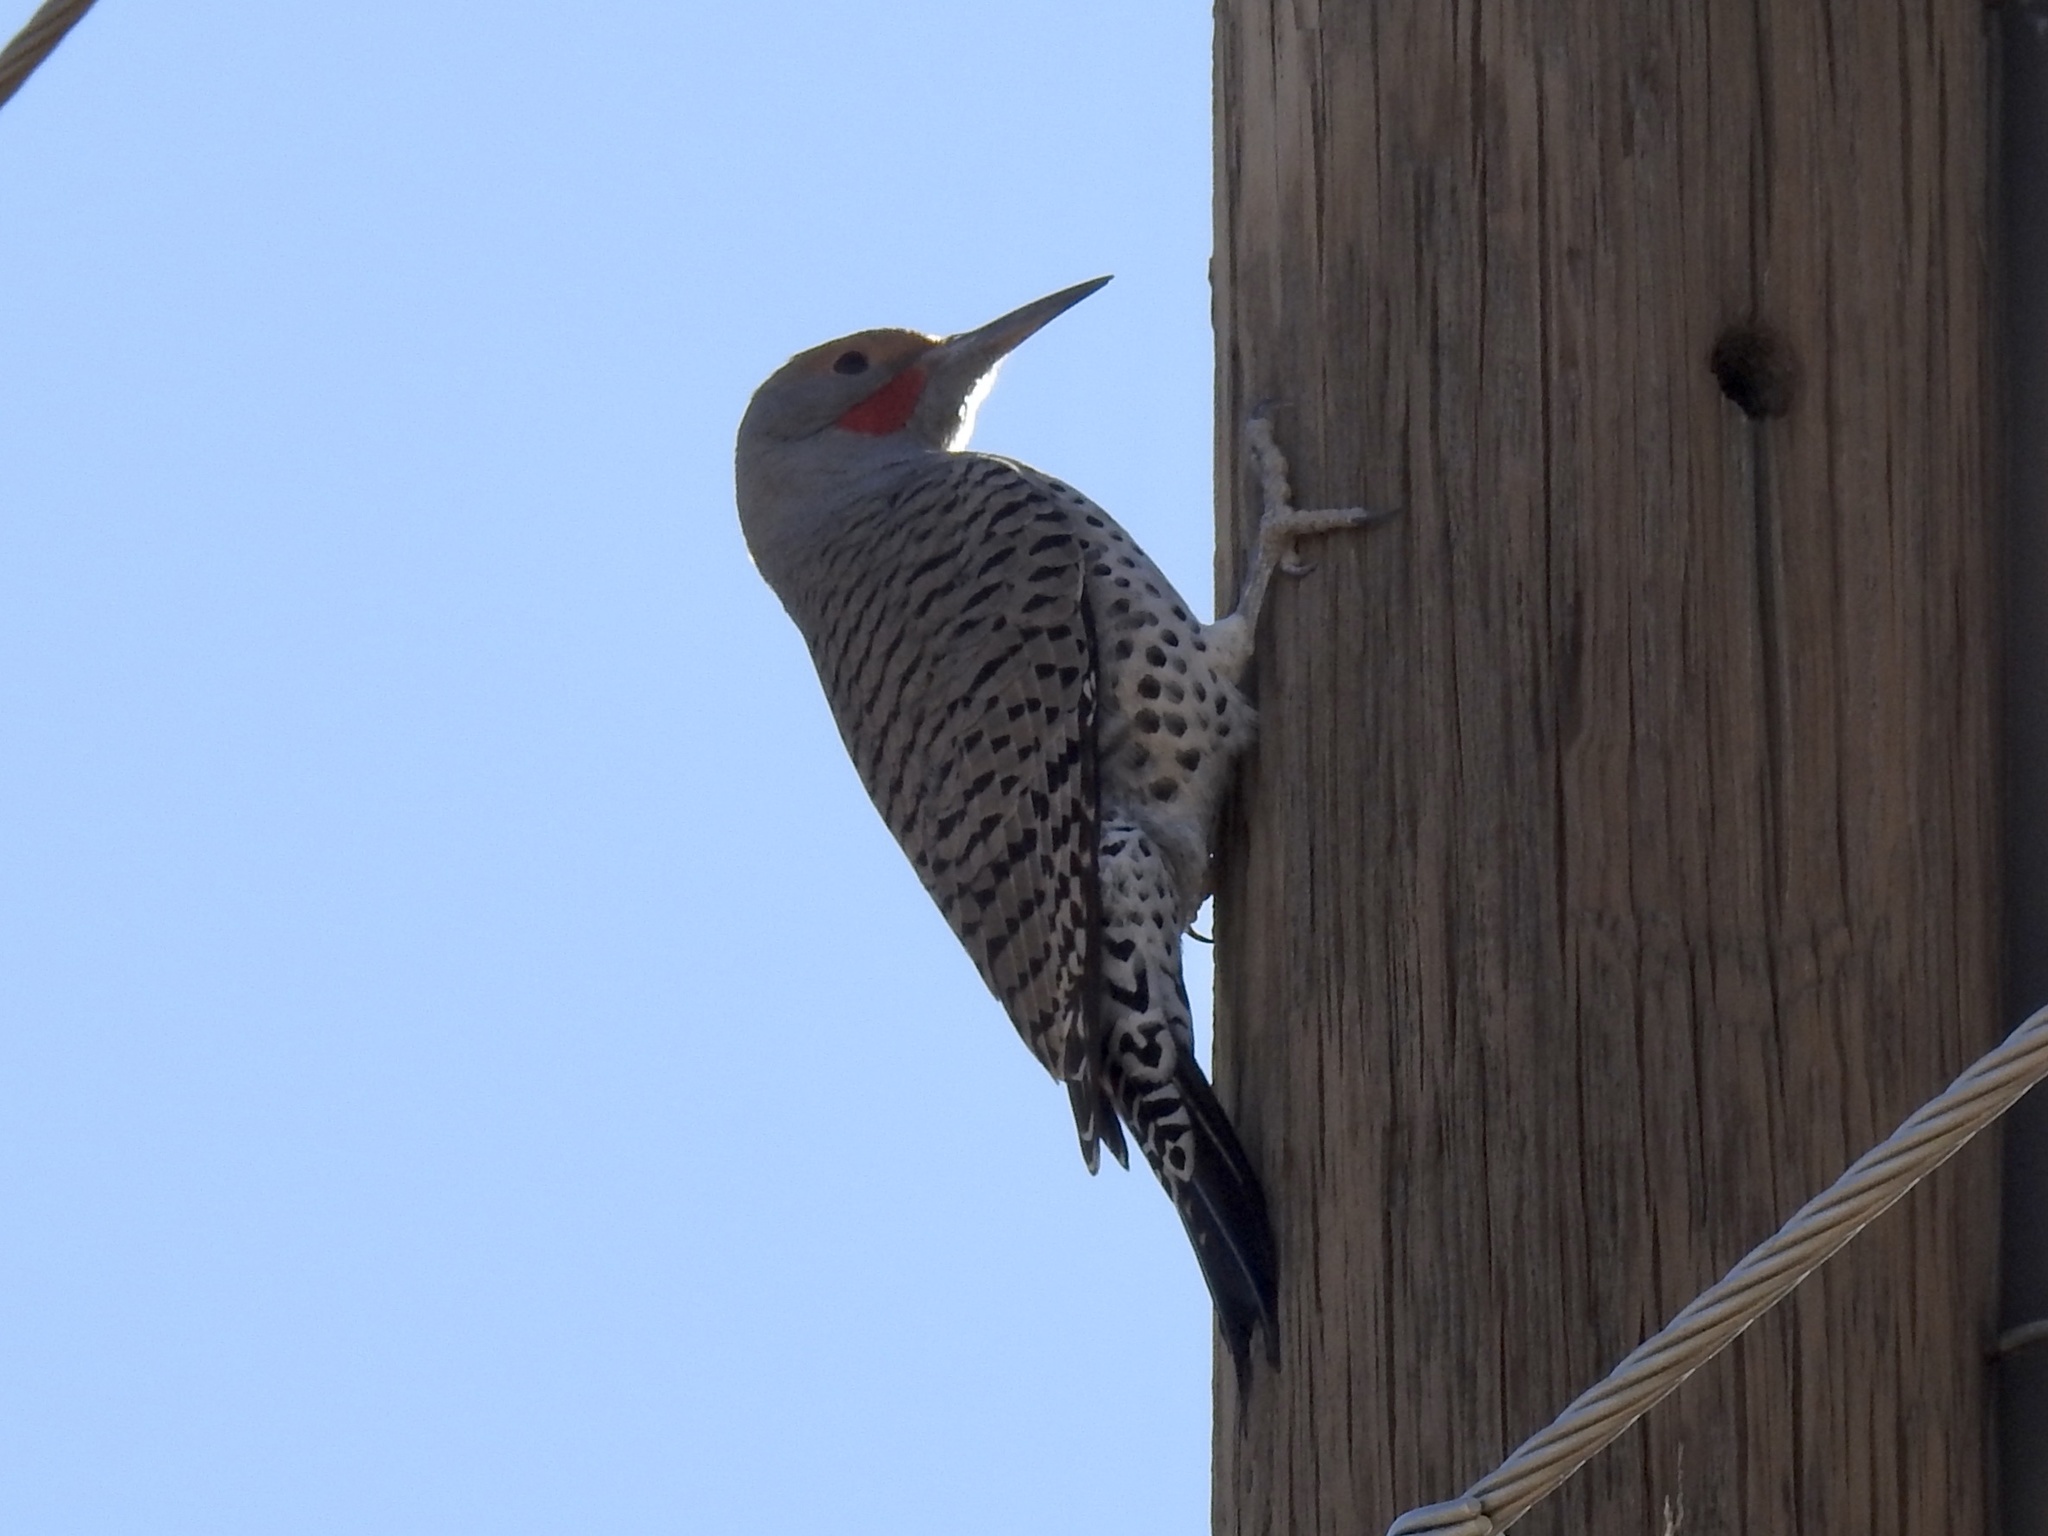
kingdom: Animalia
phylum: Chordata
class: Aves
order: Piciformes
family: Picidae
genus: Colaptes
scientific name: Colaptes auratus
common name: Northern flicker
